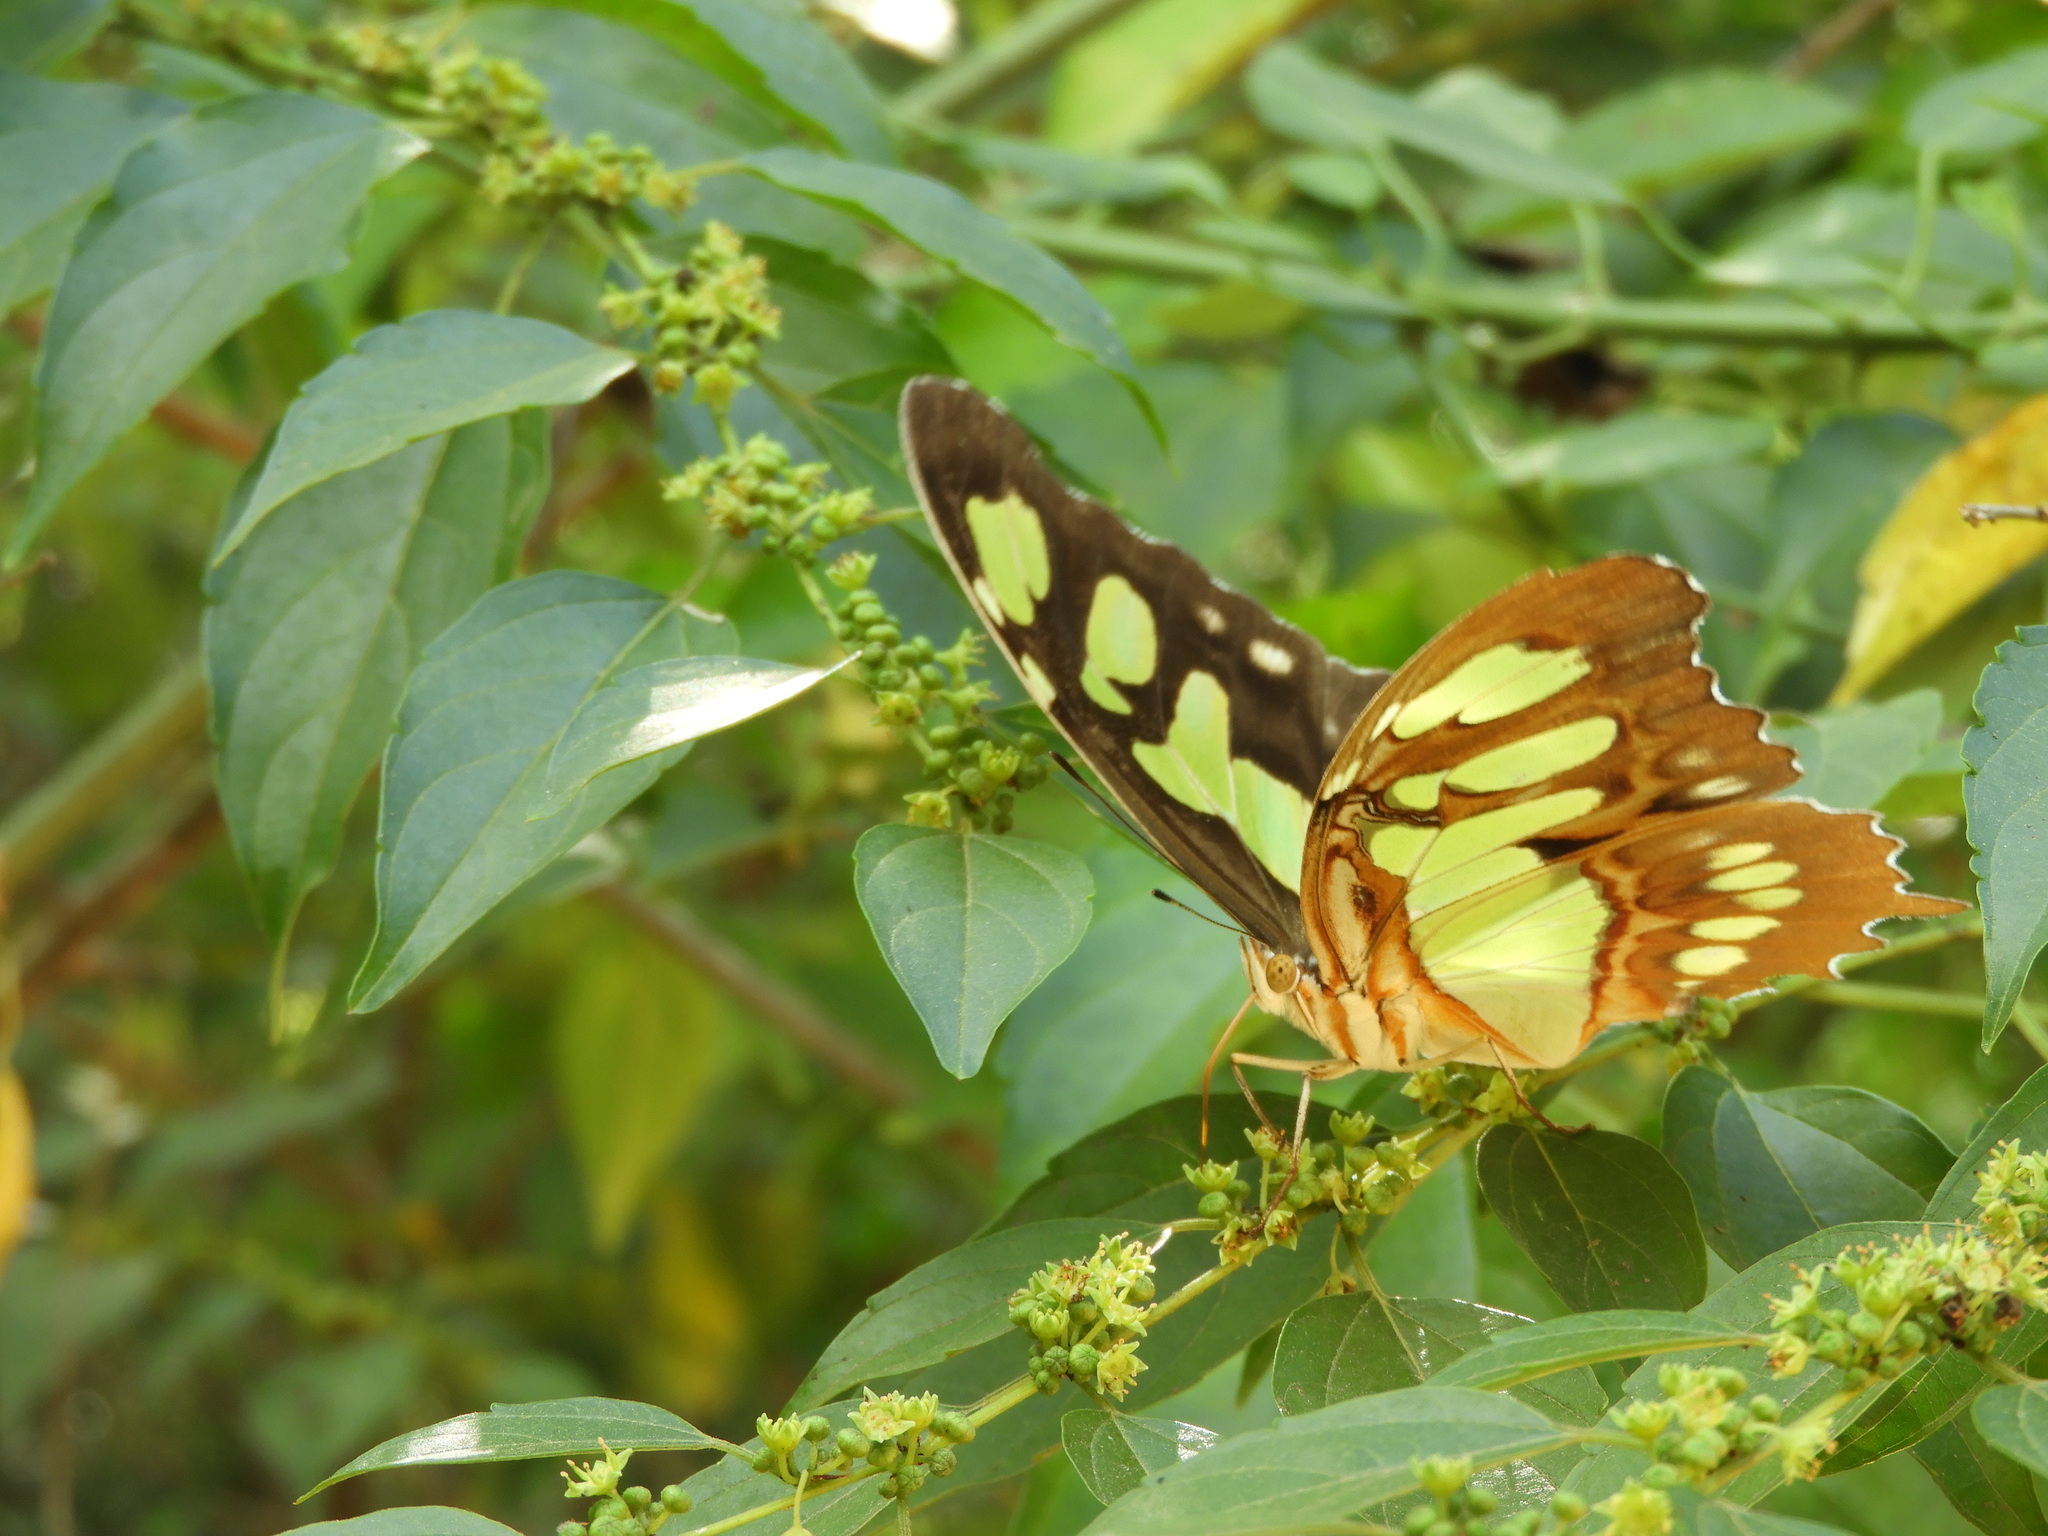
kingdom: Animalia
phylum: Arthropoda
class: Insecta
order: Lepidoptera
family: Nymphalidae
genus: Siproeta
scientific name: Siproeta stelenes
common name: Malachite
